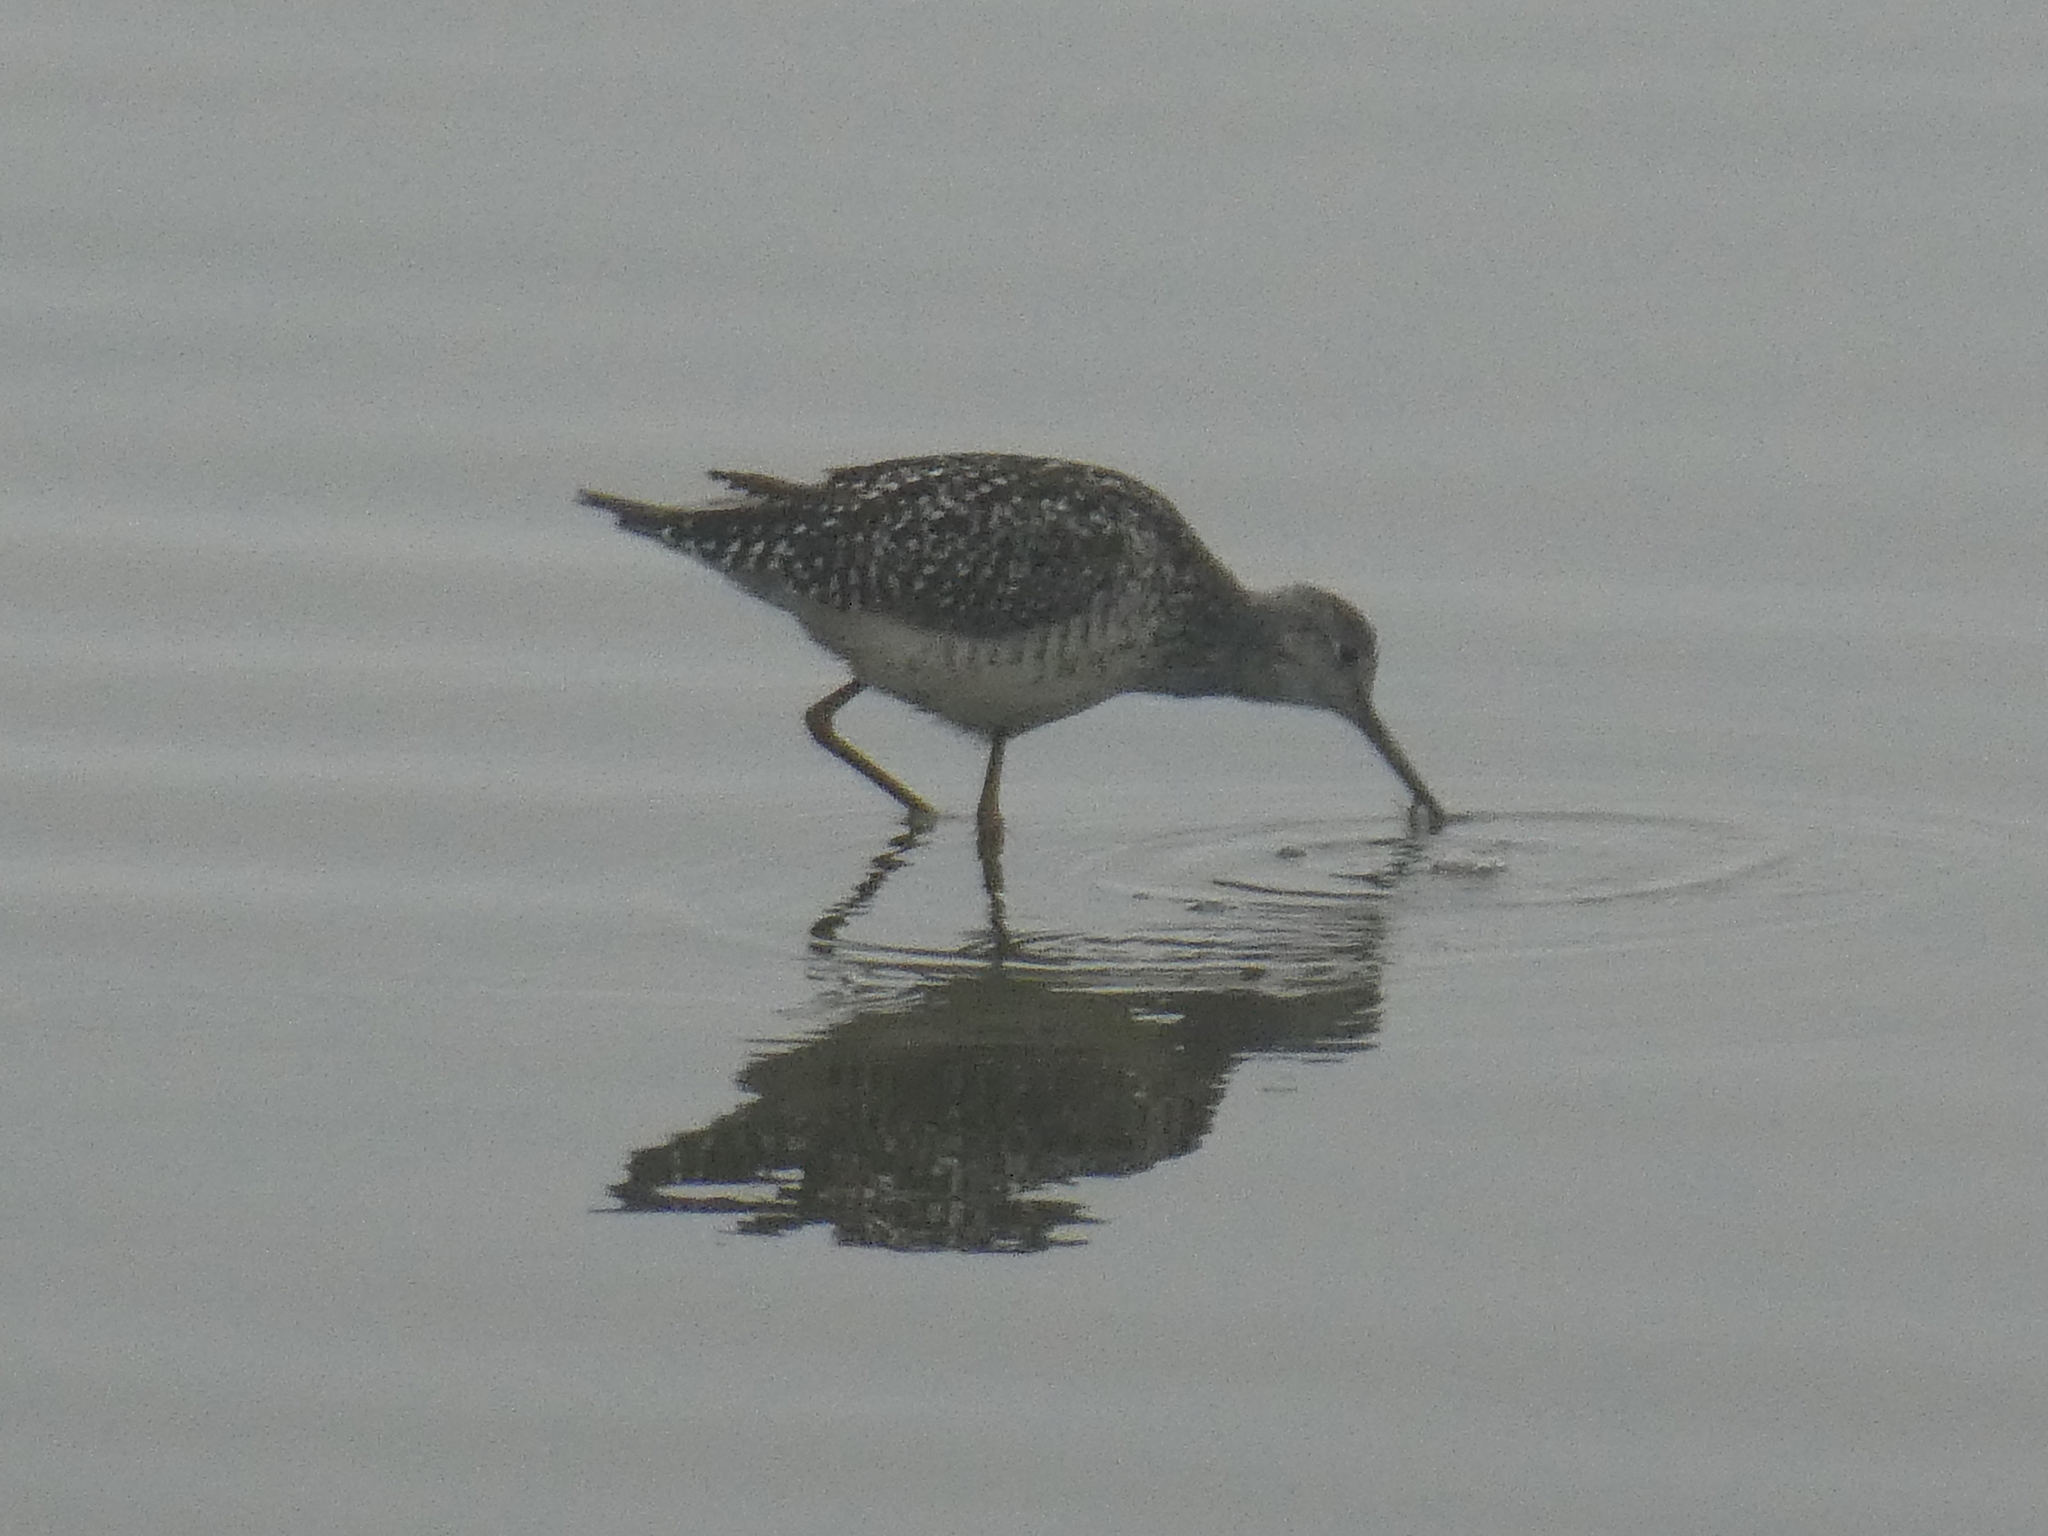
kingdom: Animalia
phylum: Chordata
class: Aves
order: Charadriiformes
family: Scolopacidae
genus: Tringa
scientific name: Tringa melanoleuca
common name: Greater yellowlegs
